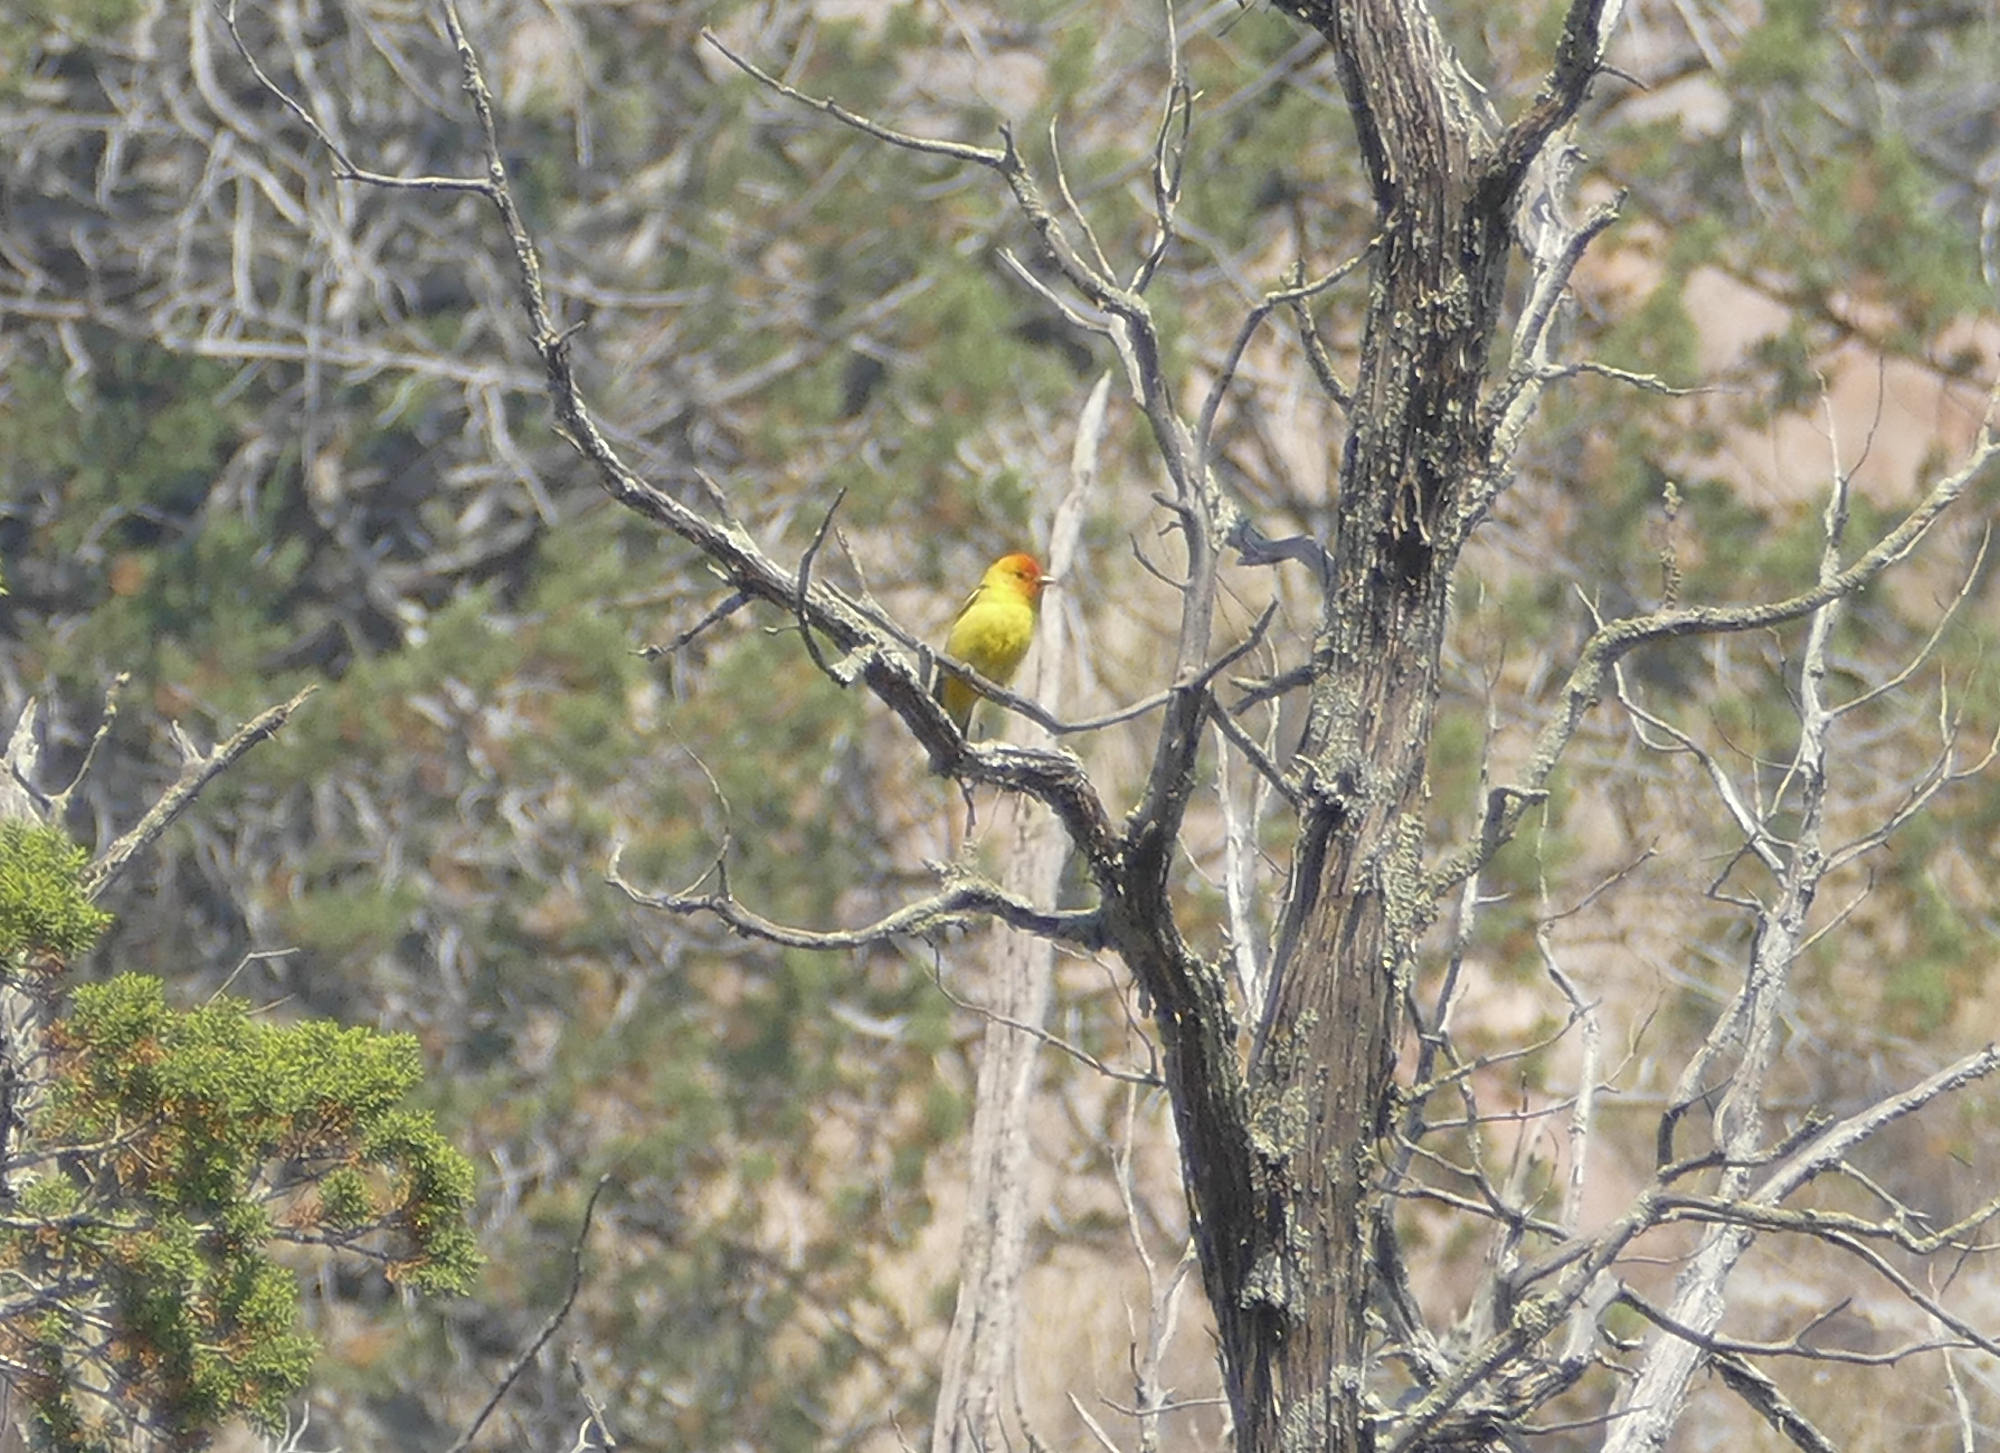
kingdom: Animalia
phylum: Chordata
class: Aves
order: Passeriformes
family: Cardinalidae
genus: Piranga
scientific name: Piranga ludoviciana
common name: Western tanager
